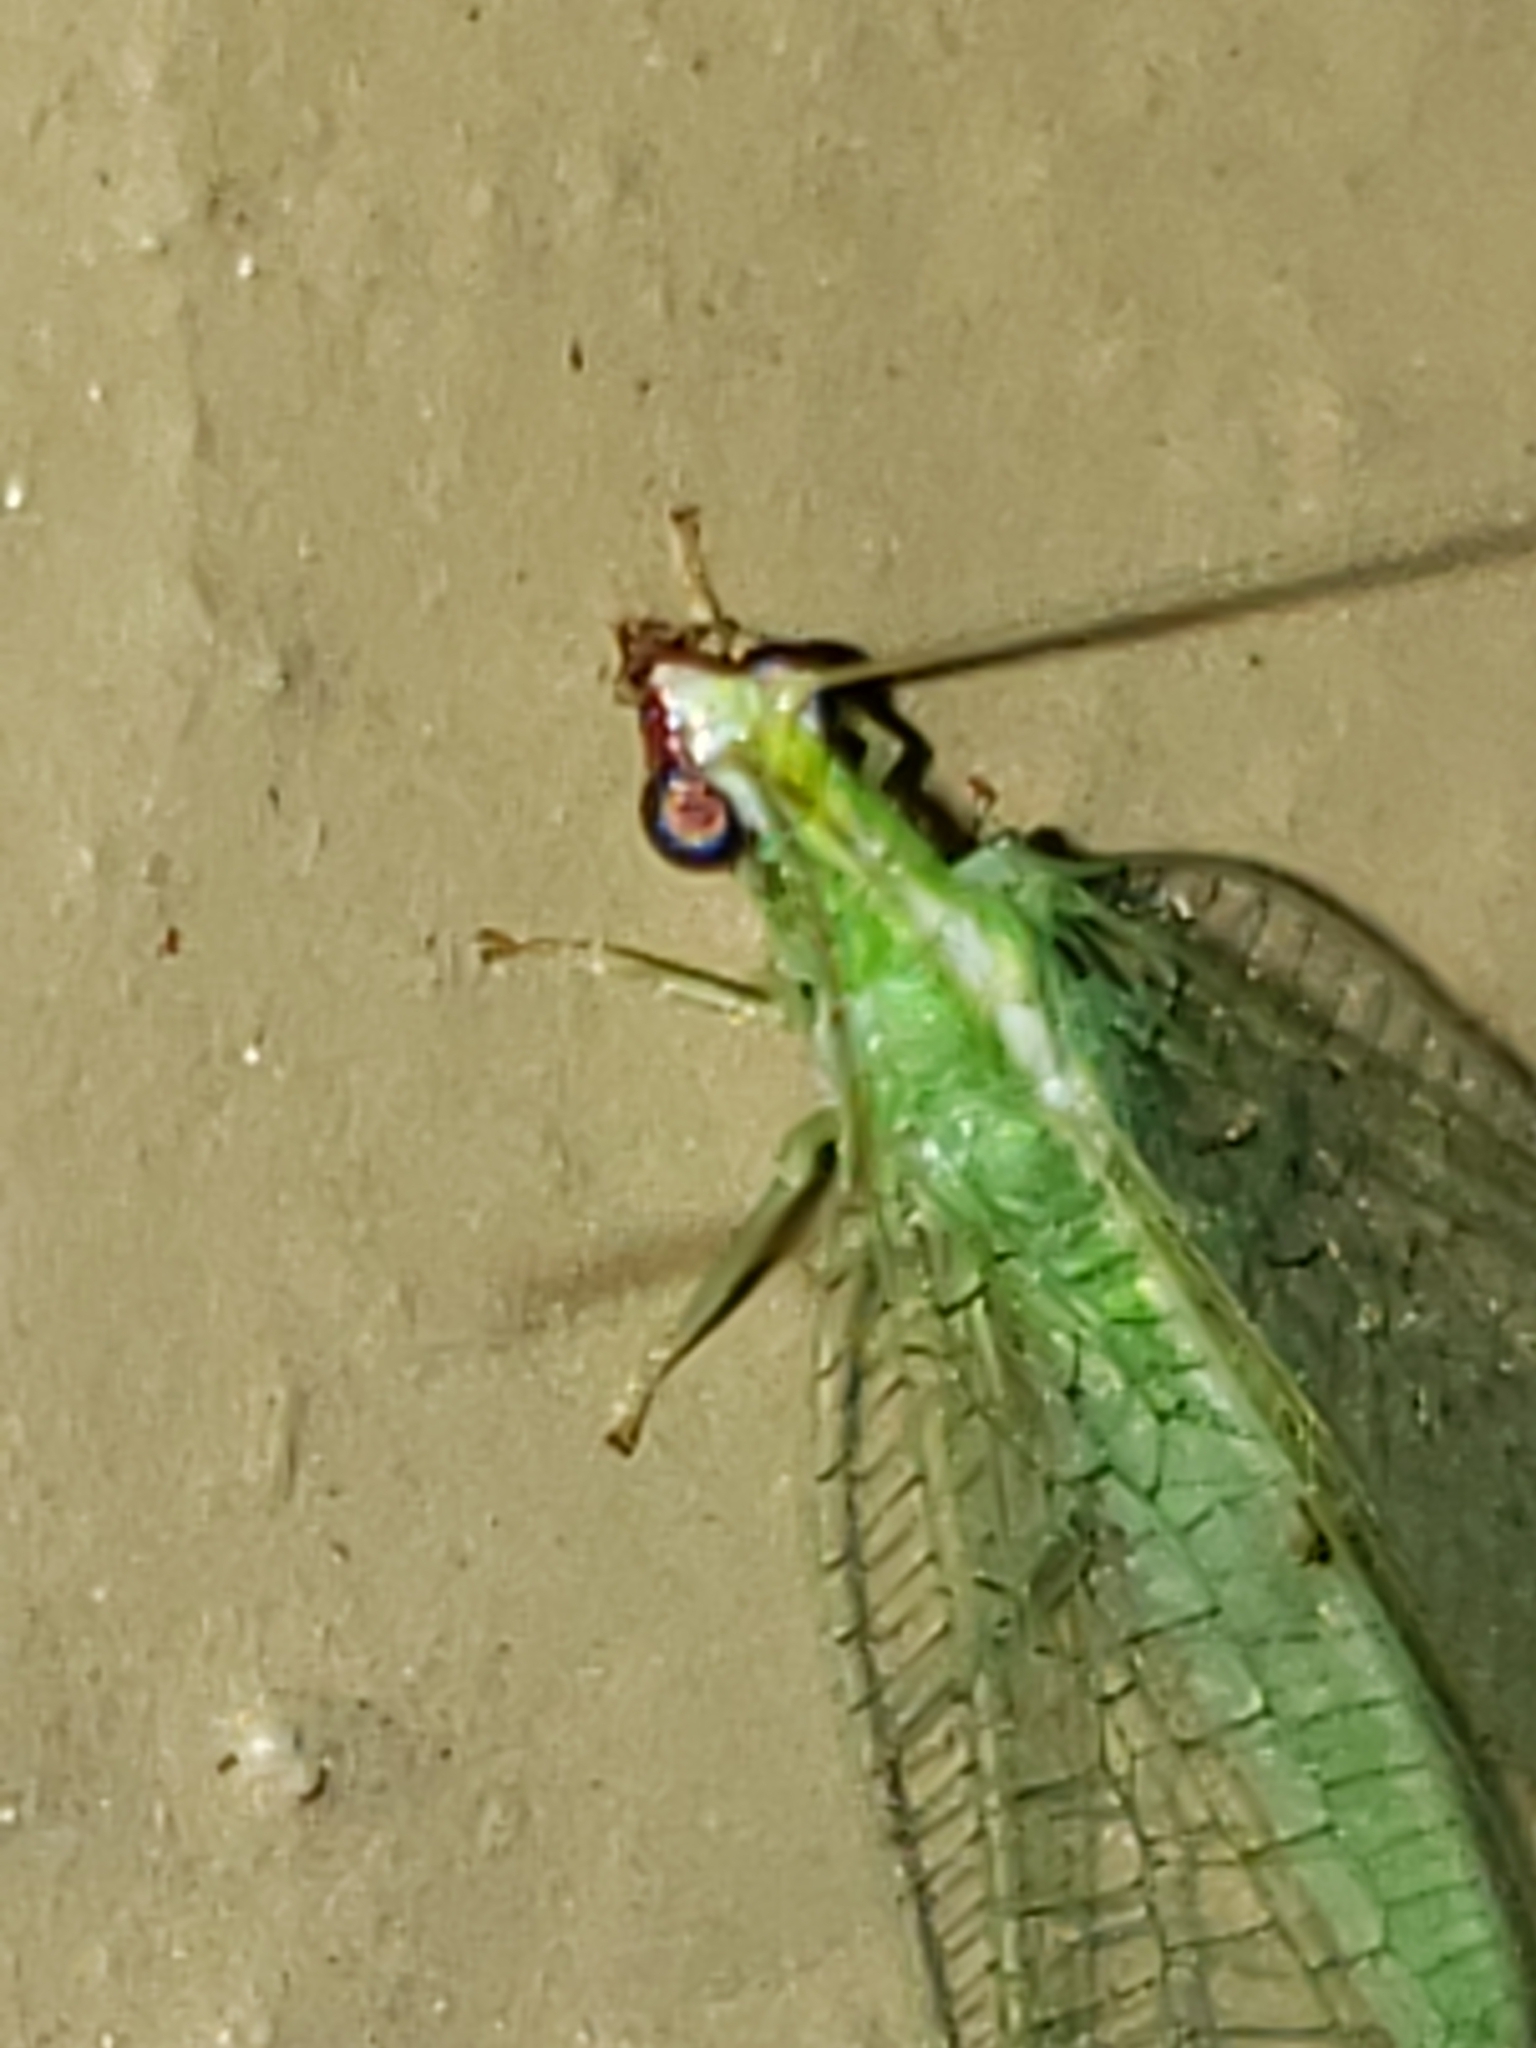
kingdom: Animalia
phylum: Arthropoda
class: Insecta
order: Neuroptera
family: Chrysopidae
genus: Chrysoperla
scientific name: Chrysoperla rufilabris
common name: Red-lipped green lacewing
